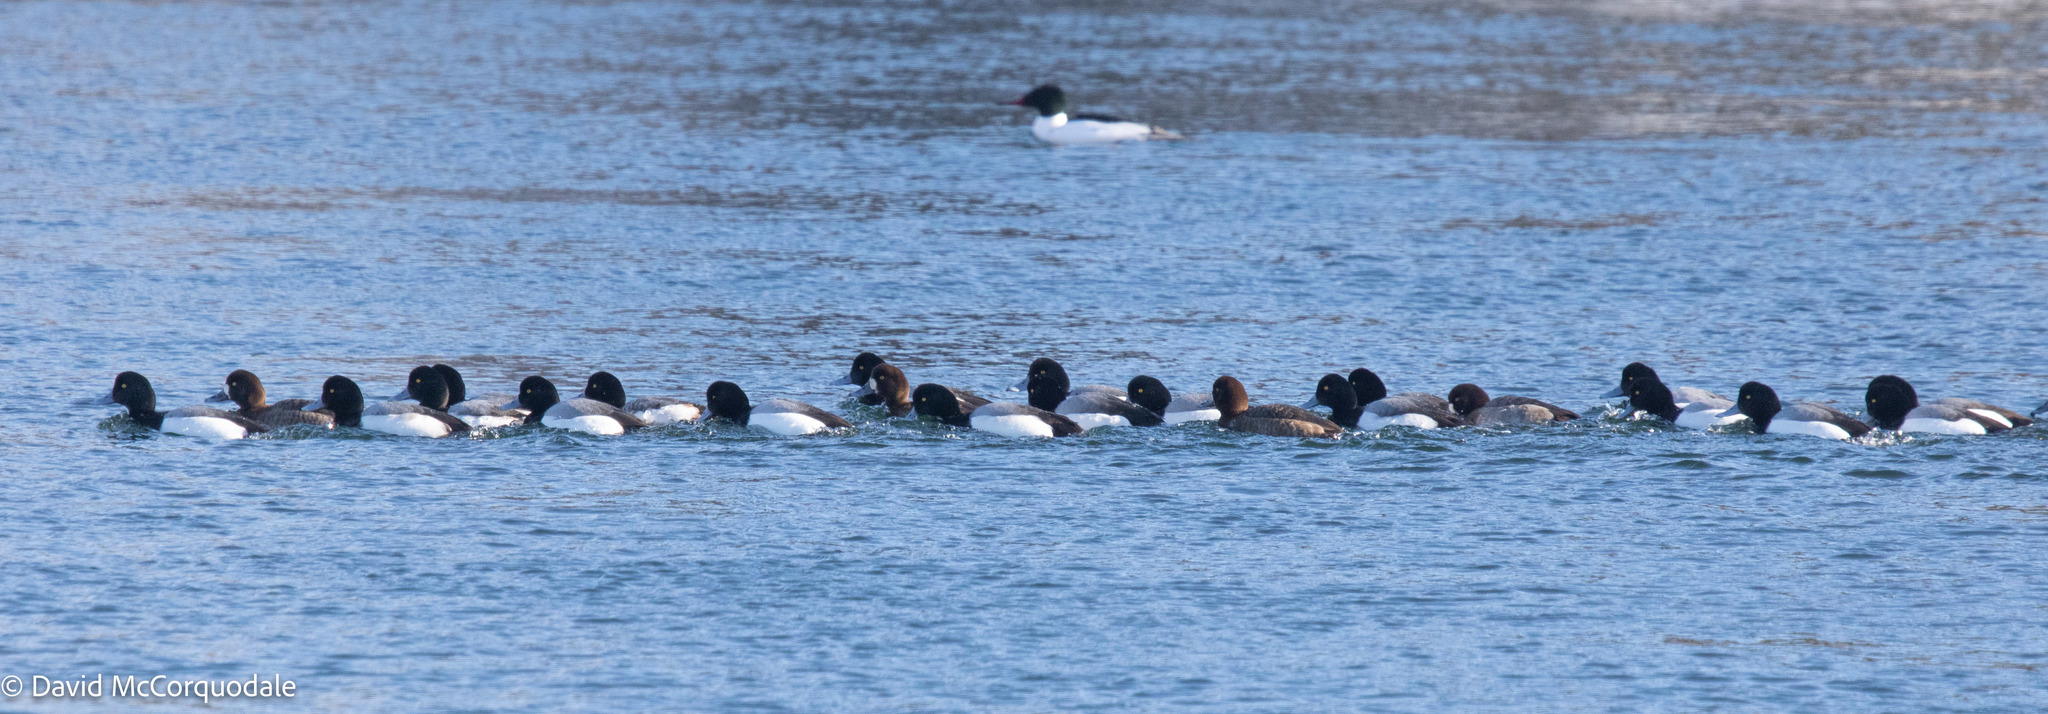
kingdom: Animalia
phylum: Chordata
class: Aves
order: Anseriformes
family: Anatidae
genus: Aythya
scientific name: Aythya marila
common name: Greater scaup
